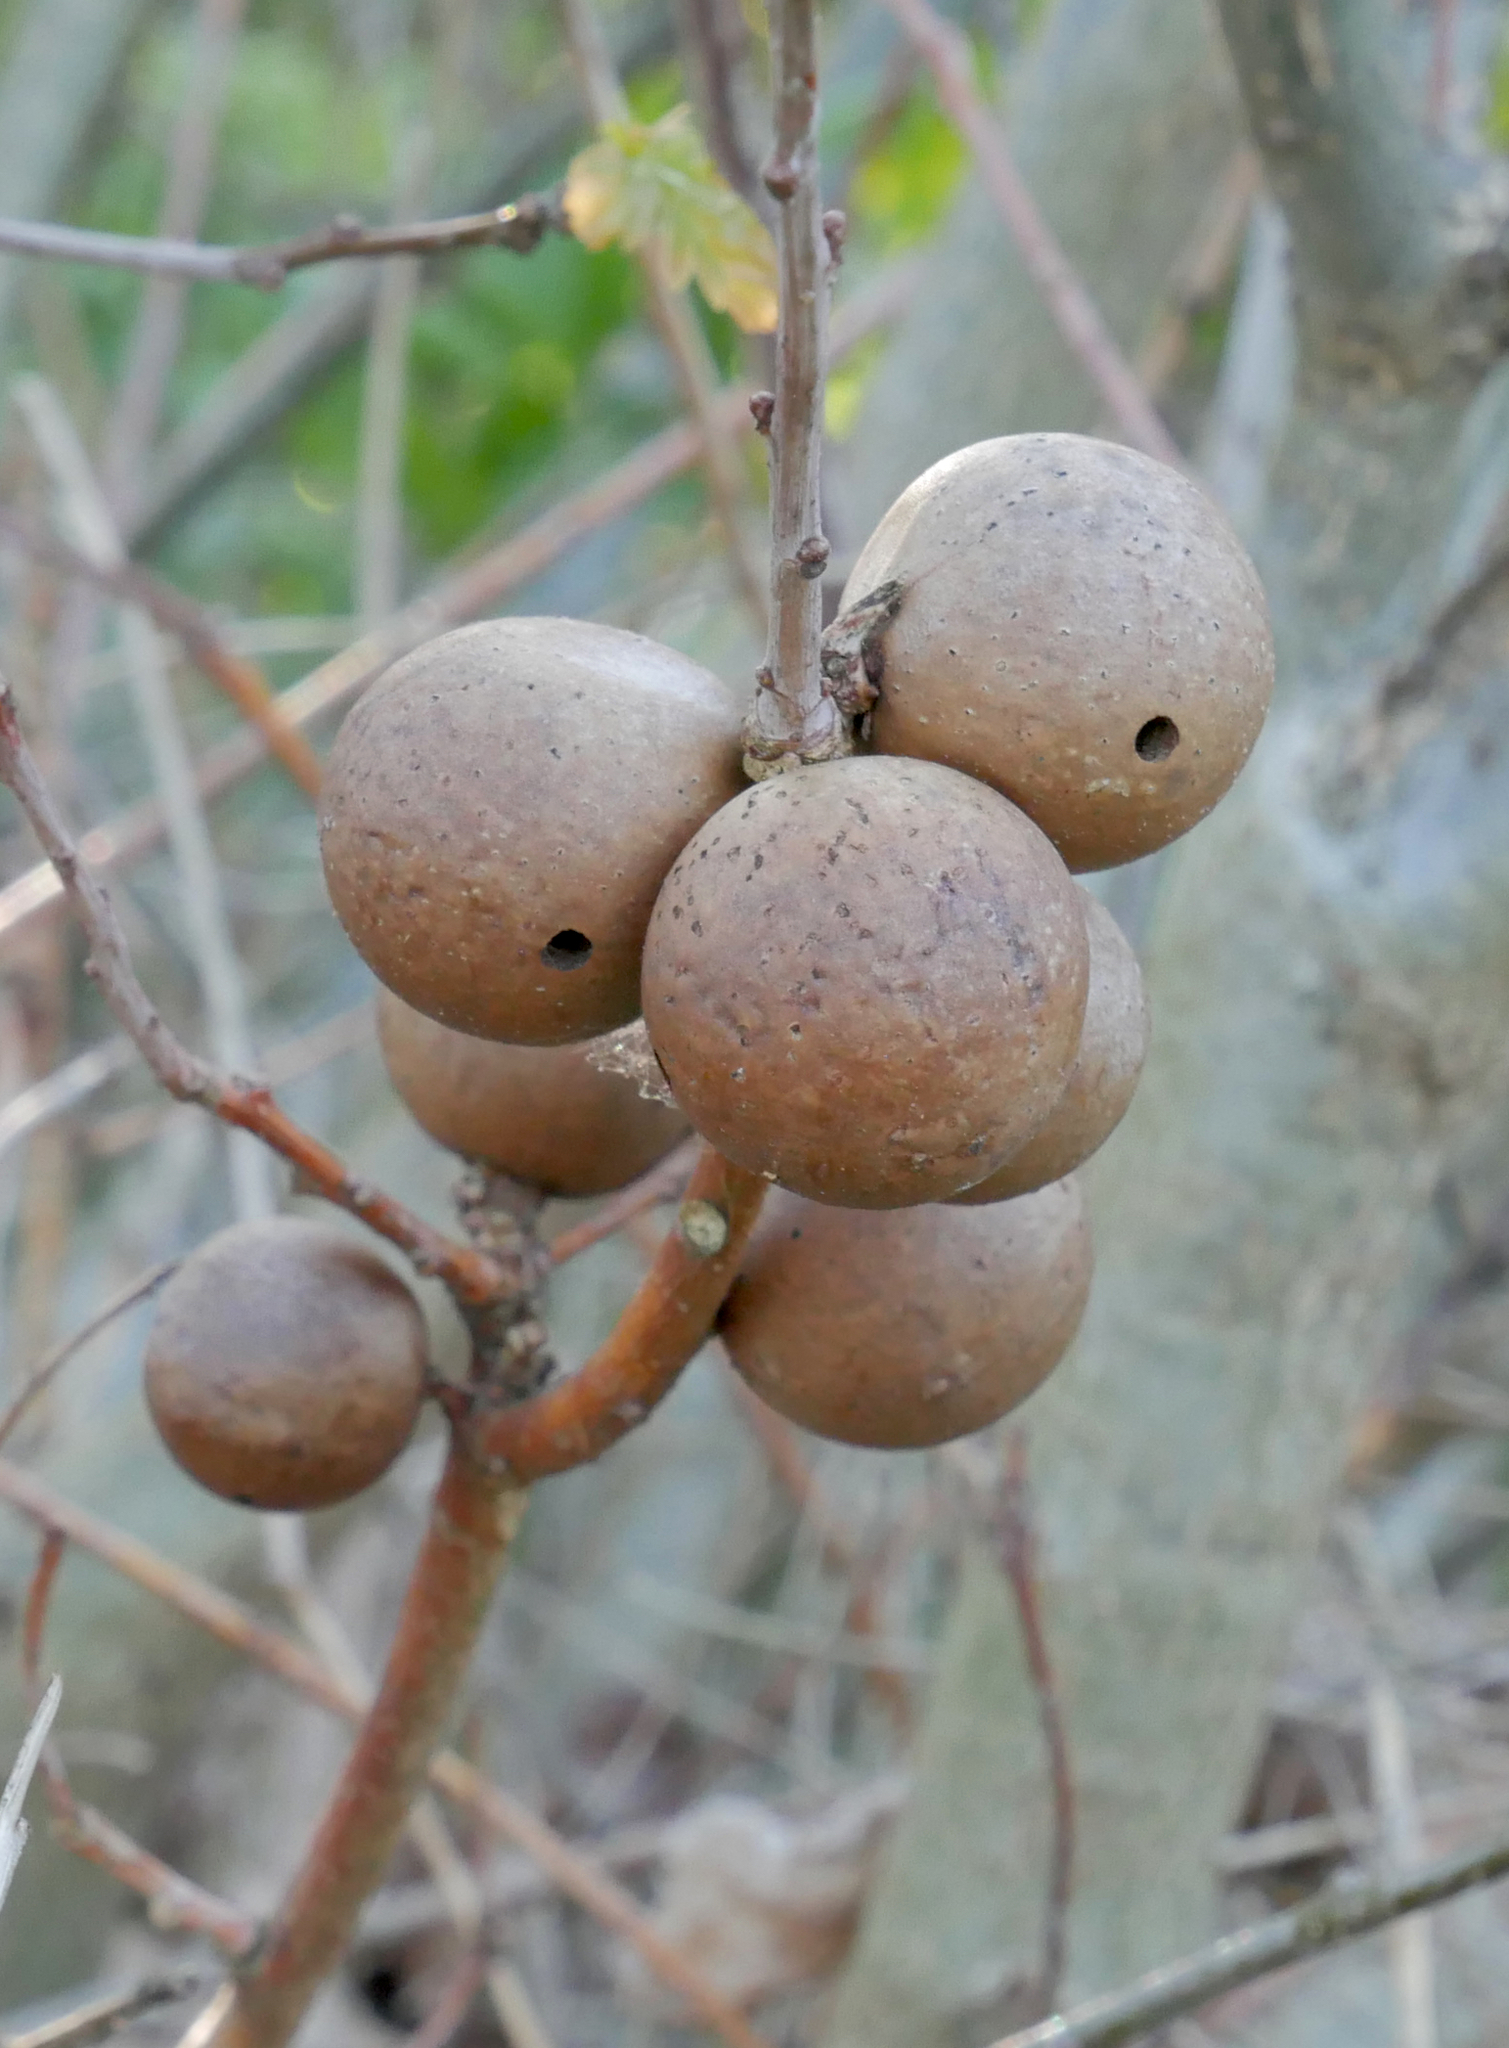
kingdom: Animalia
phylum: Arthropoda
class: Insecta
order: Hymenoptera
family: Cynipidae
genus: Andricus
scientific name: Andricus kollari
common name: Marble gall
